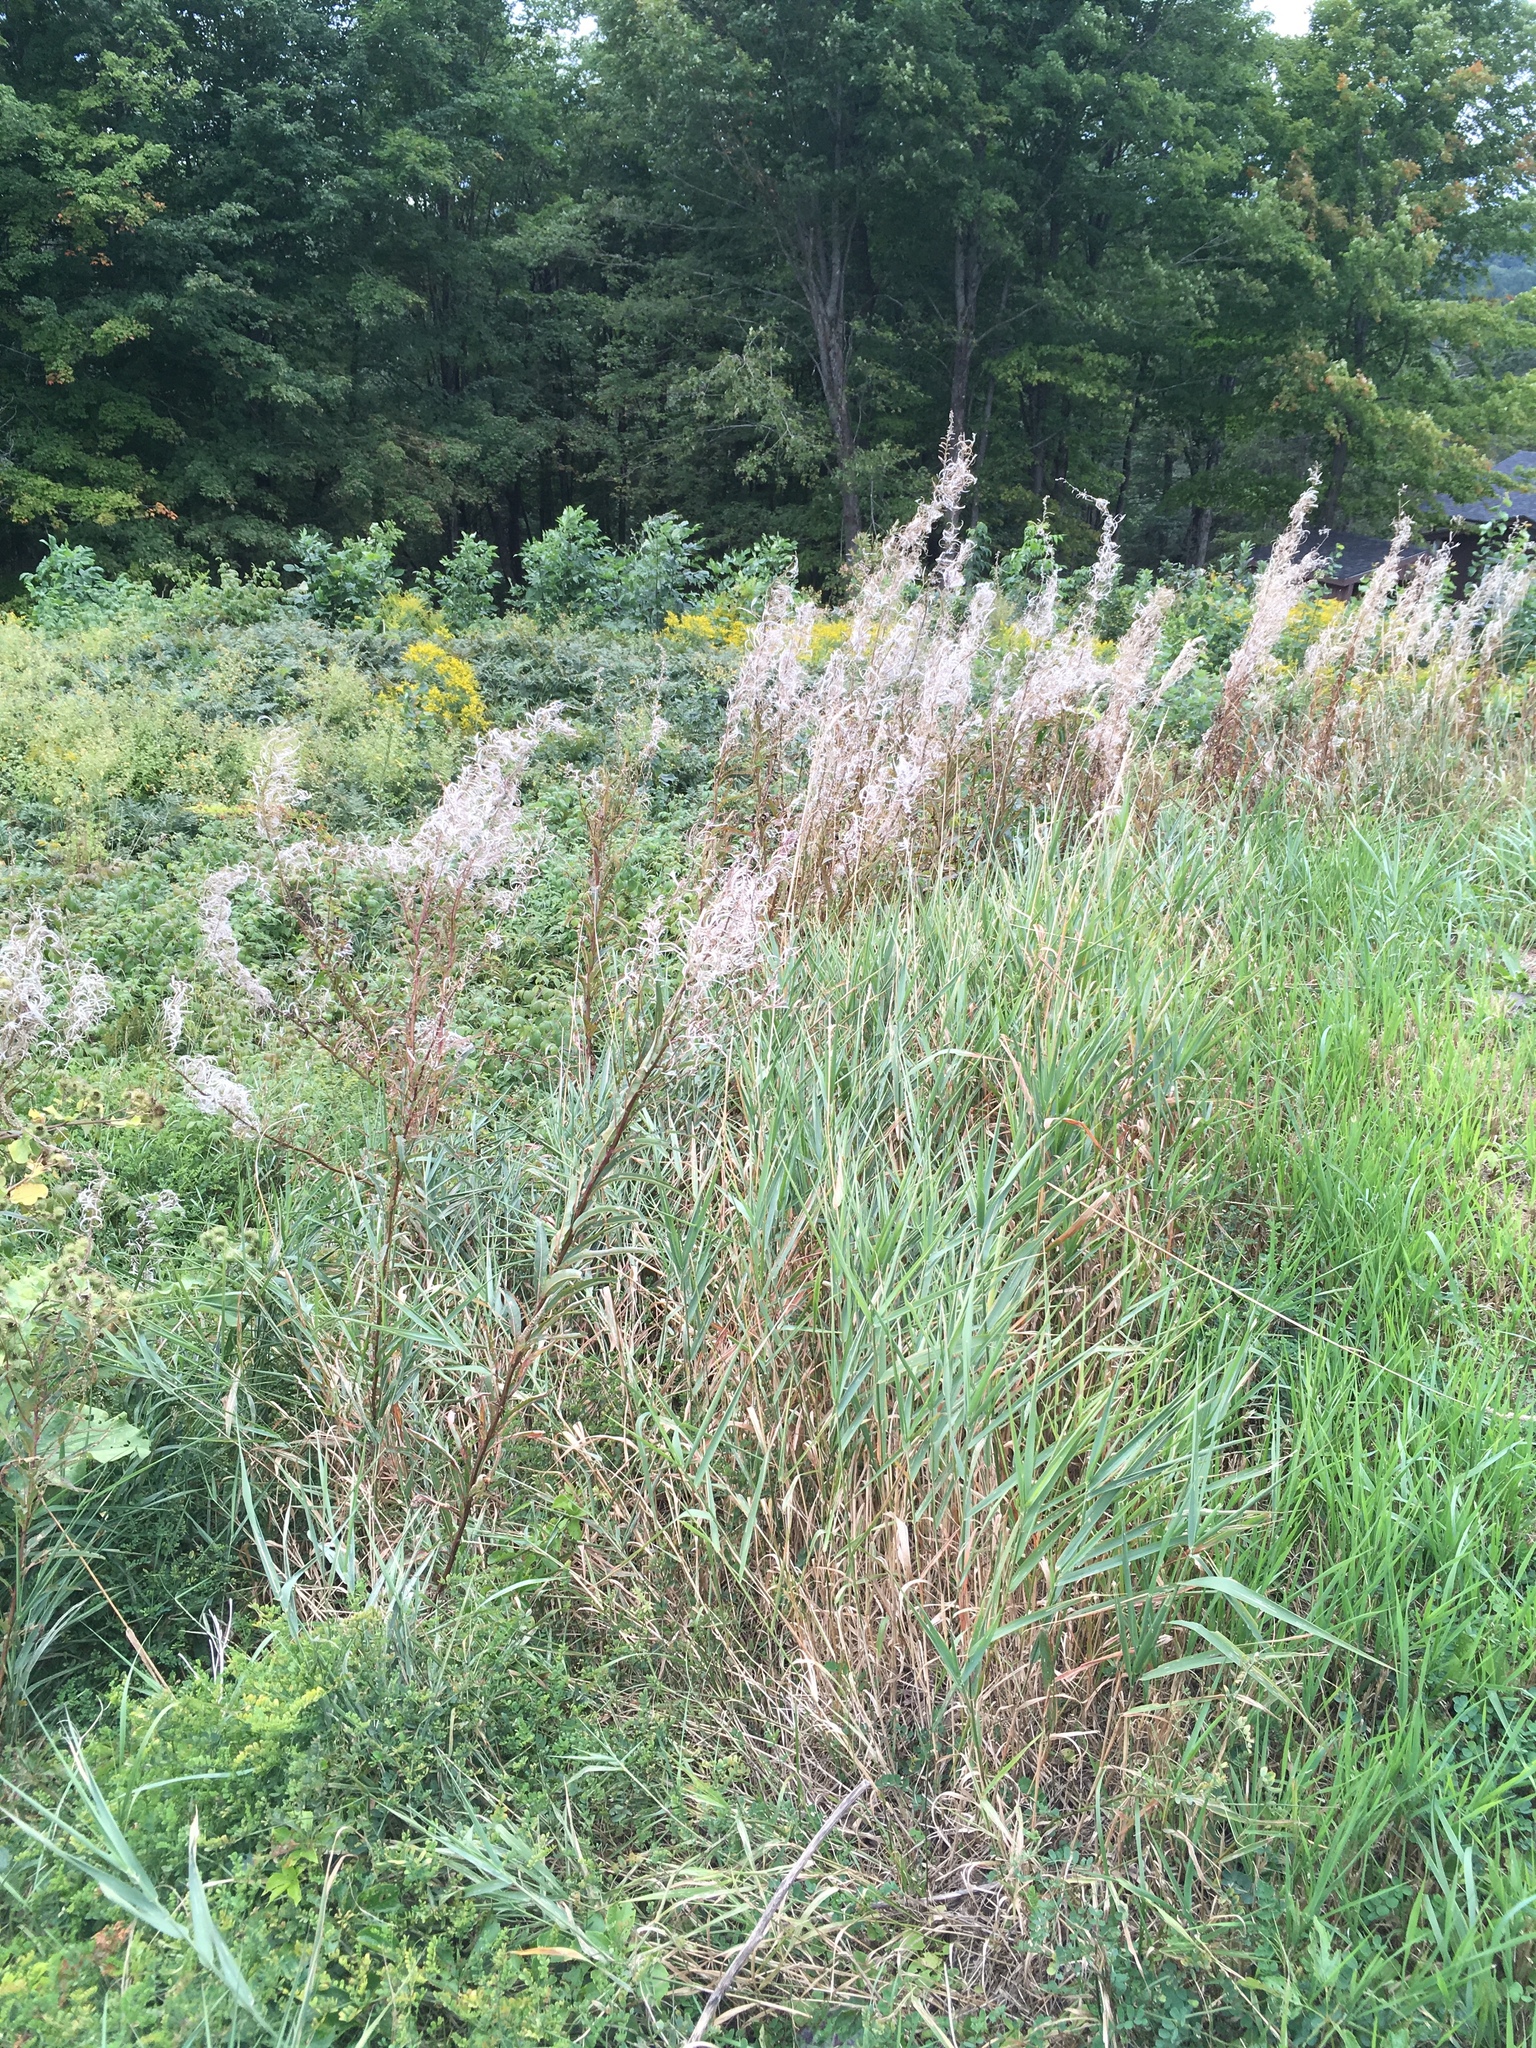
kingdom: Plantae
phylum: Tracheophyta
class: Magnoliopsida
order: Myrtales
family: Onagraceae
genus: Chamaenerion
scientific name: Chamaenerion angustifolium
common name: Fireweed
